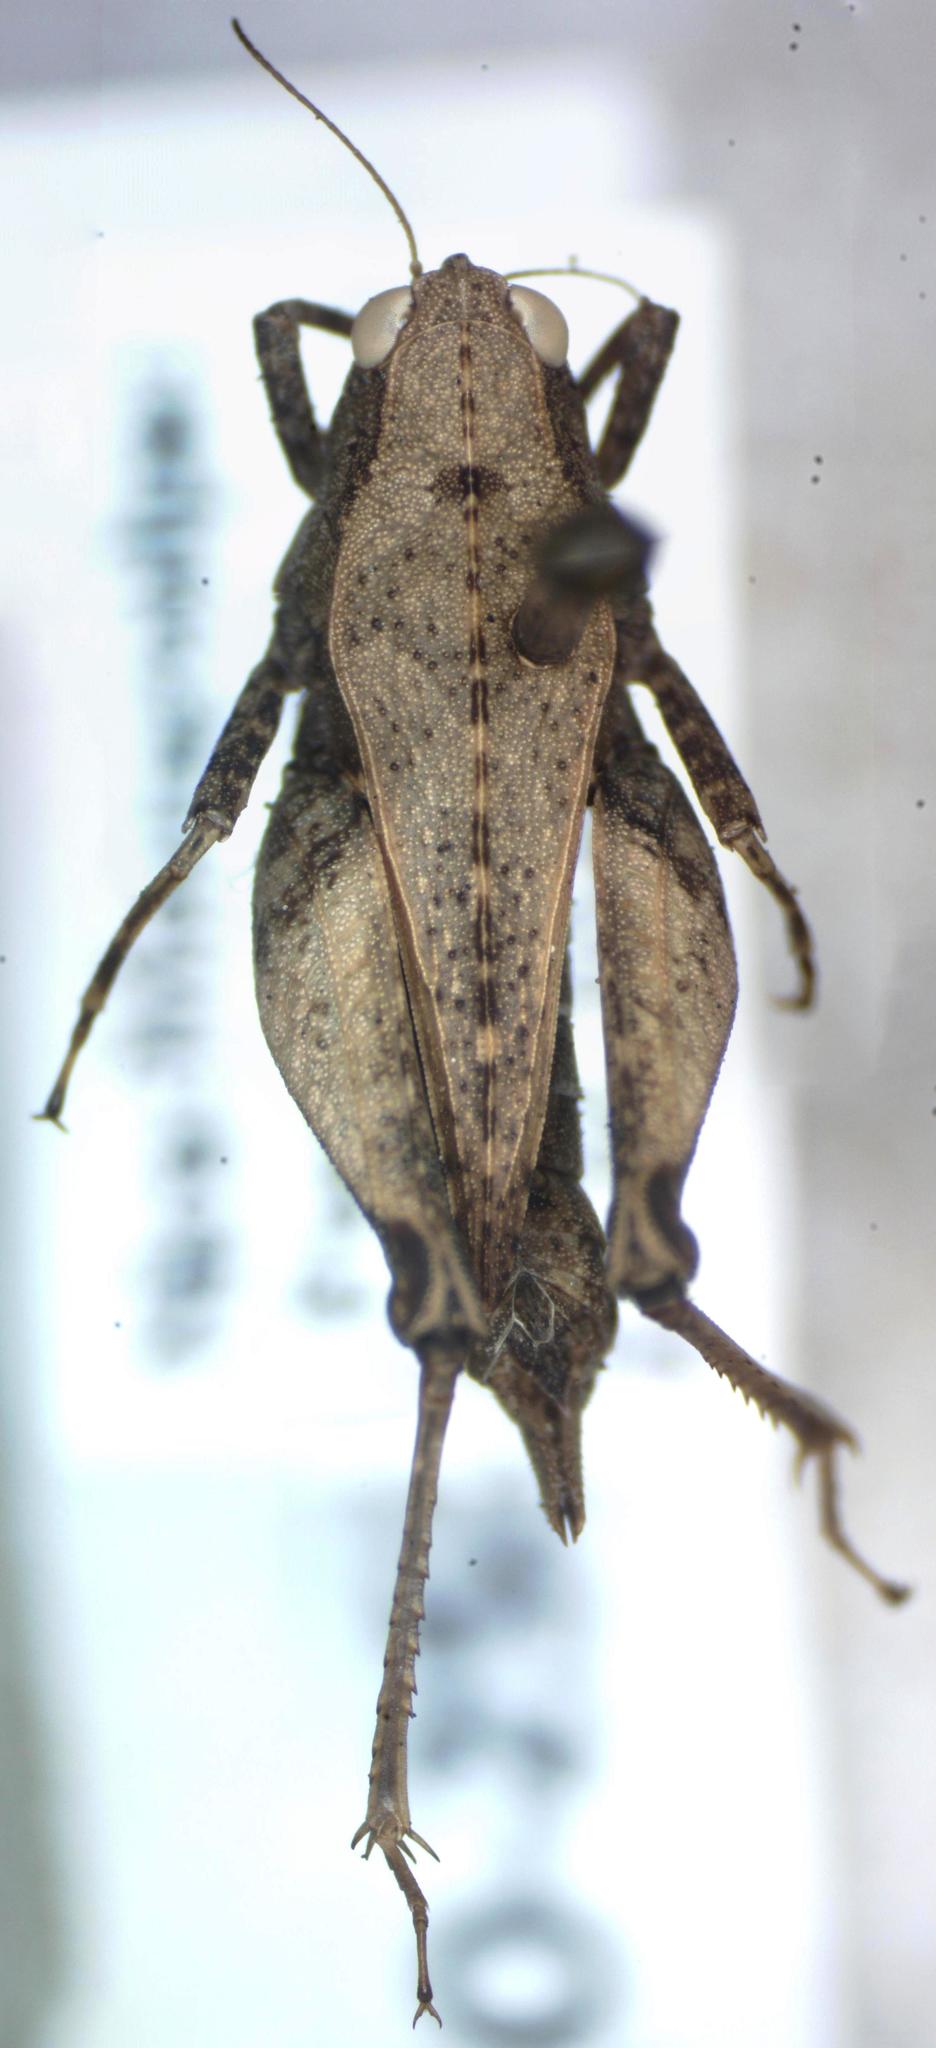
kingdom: Animalia
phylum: Arthropoda
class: Insecta
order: Orthoptera
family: Tetrigidae
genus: Tettigidea
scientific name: Tettigidea
